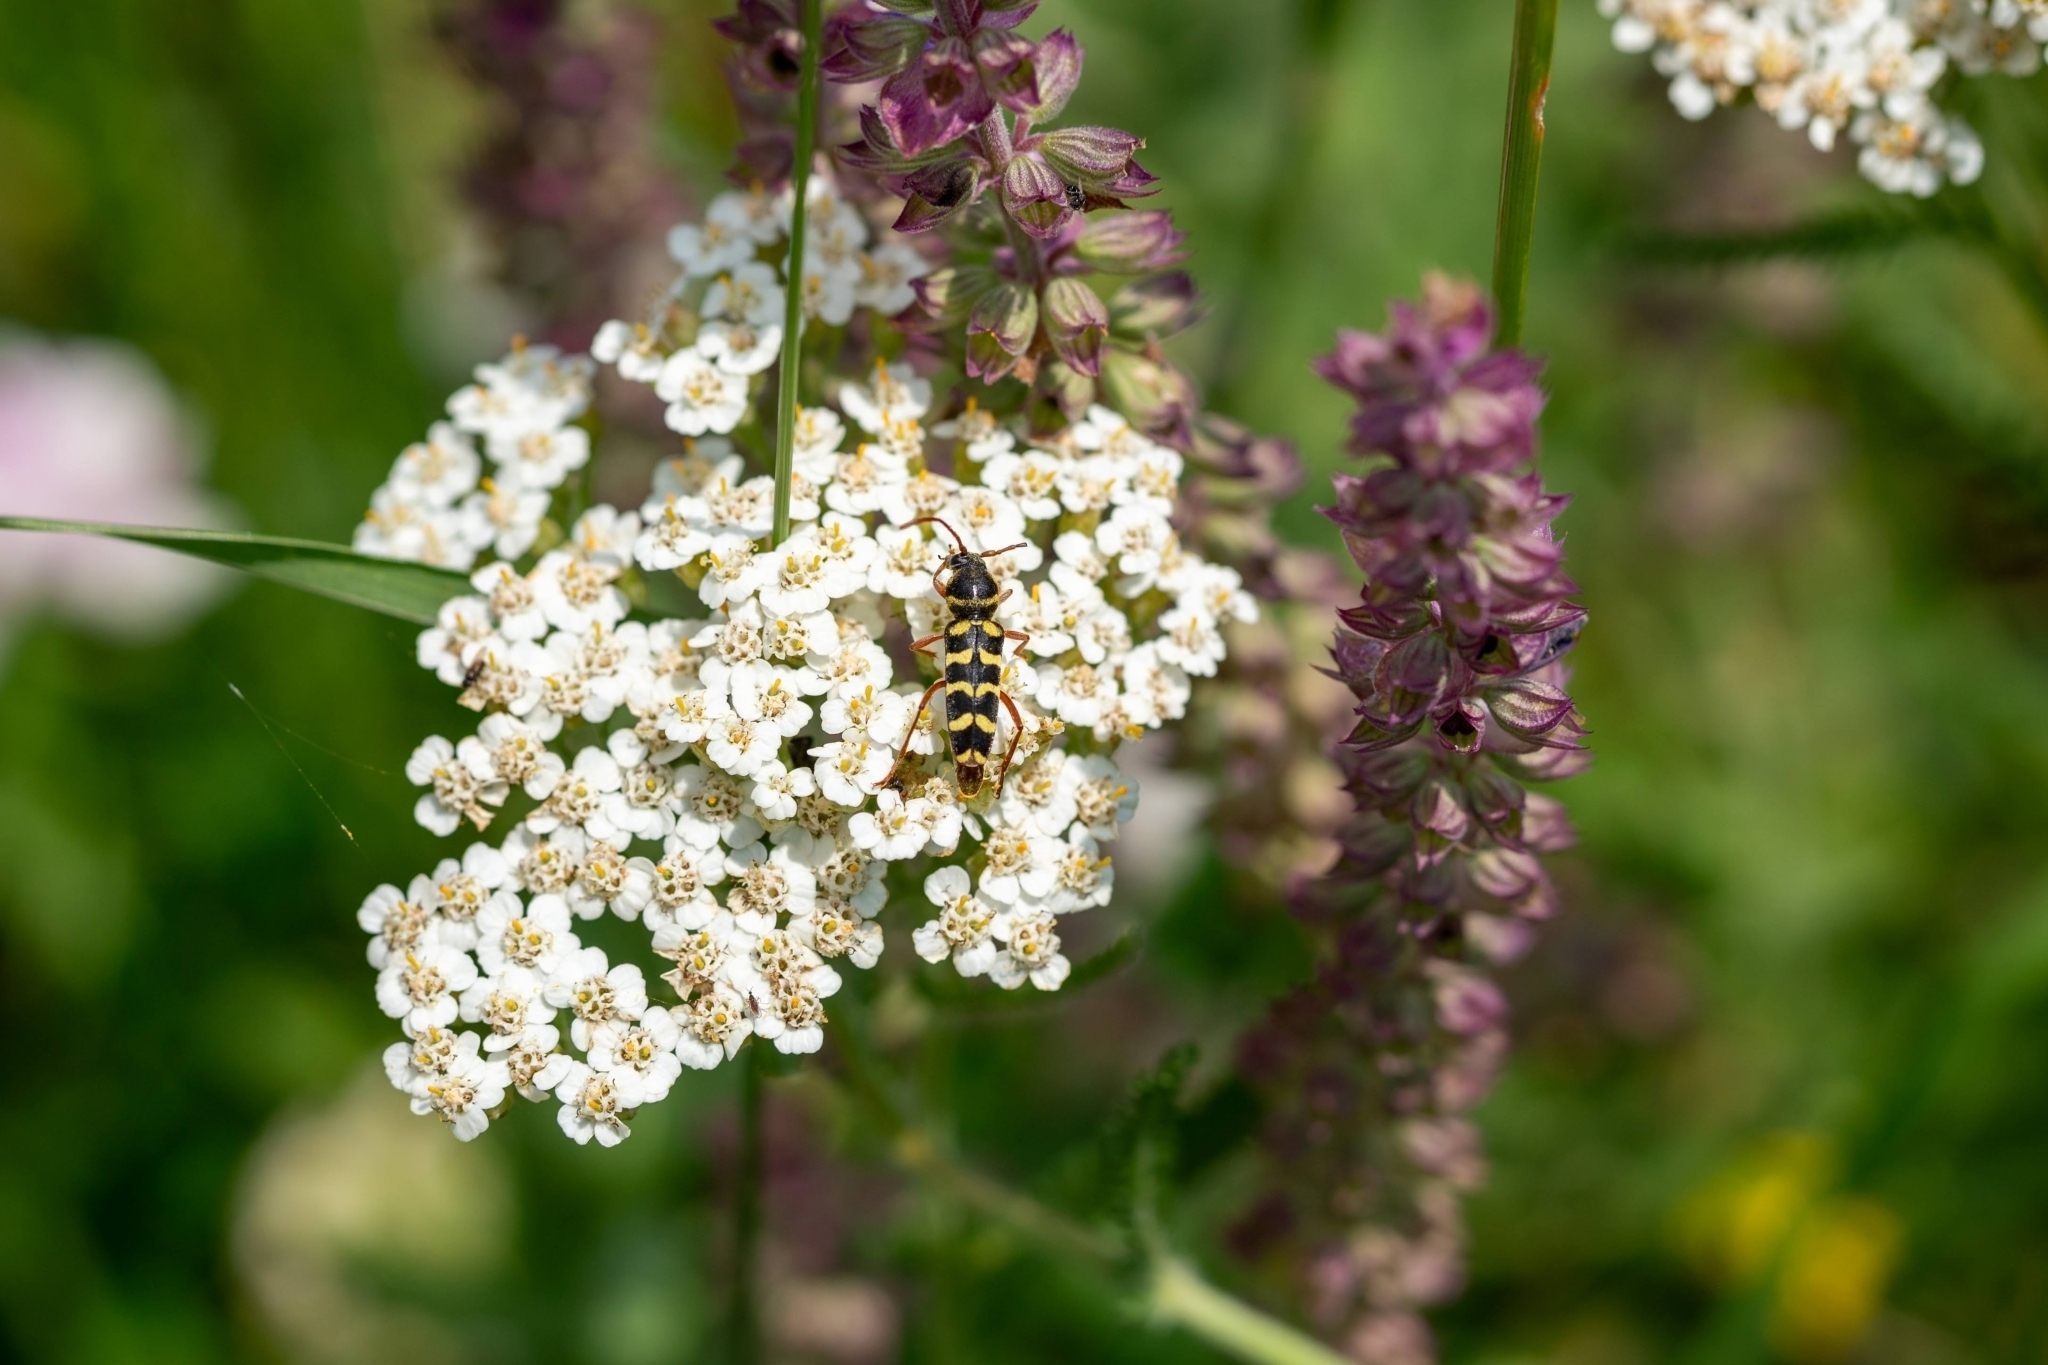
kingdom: Animalia
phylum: Arthropoda
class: Insecta
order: Coleoptera
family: Cerambycidae
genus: Plagionotus
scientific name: Plagionotus floralis
